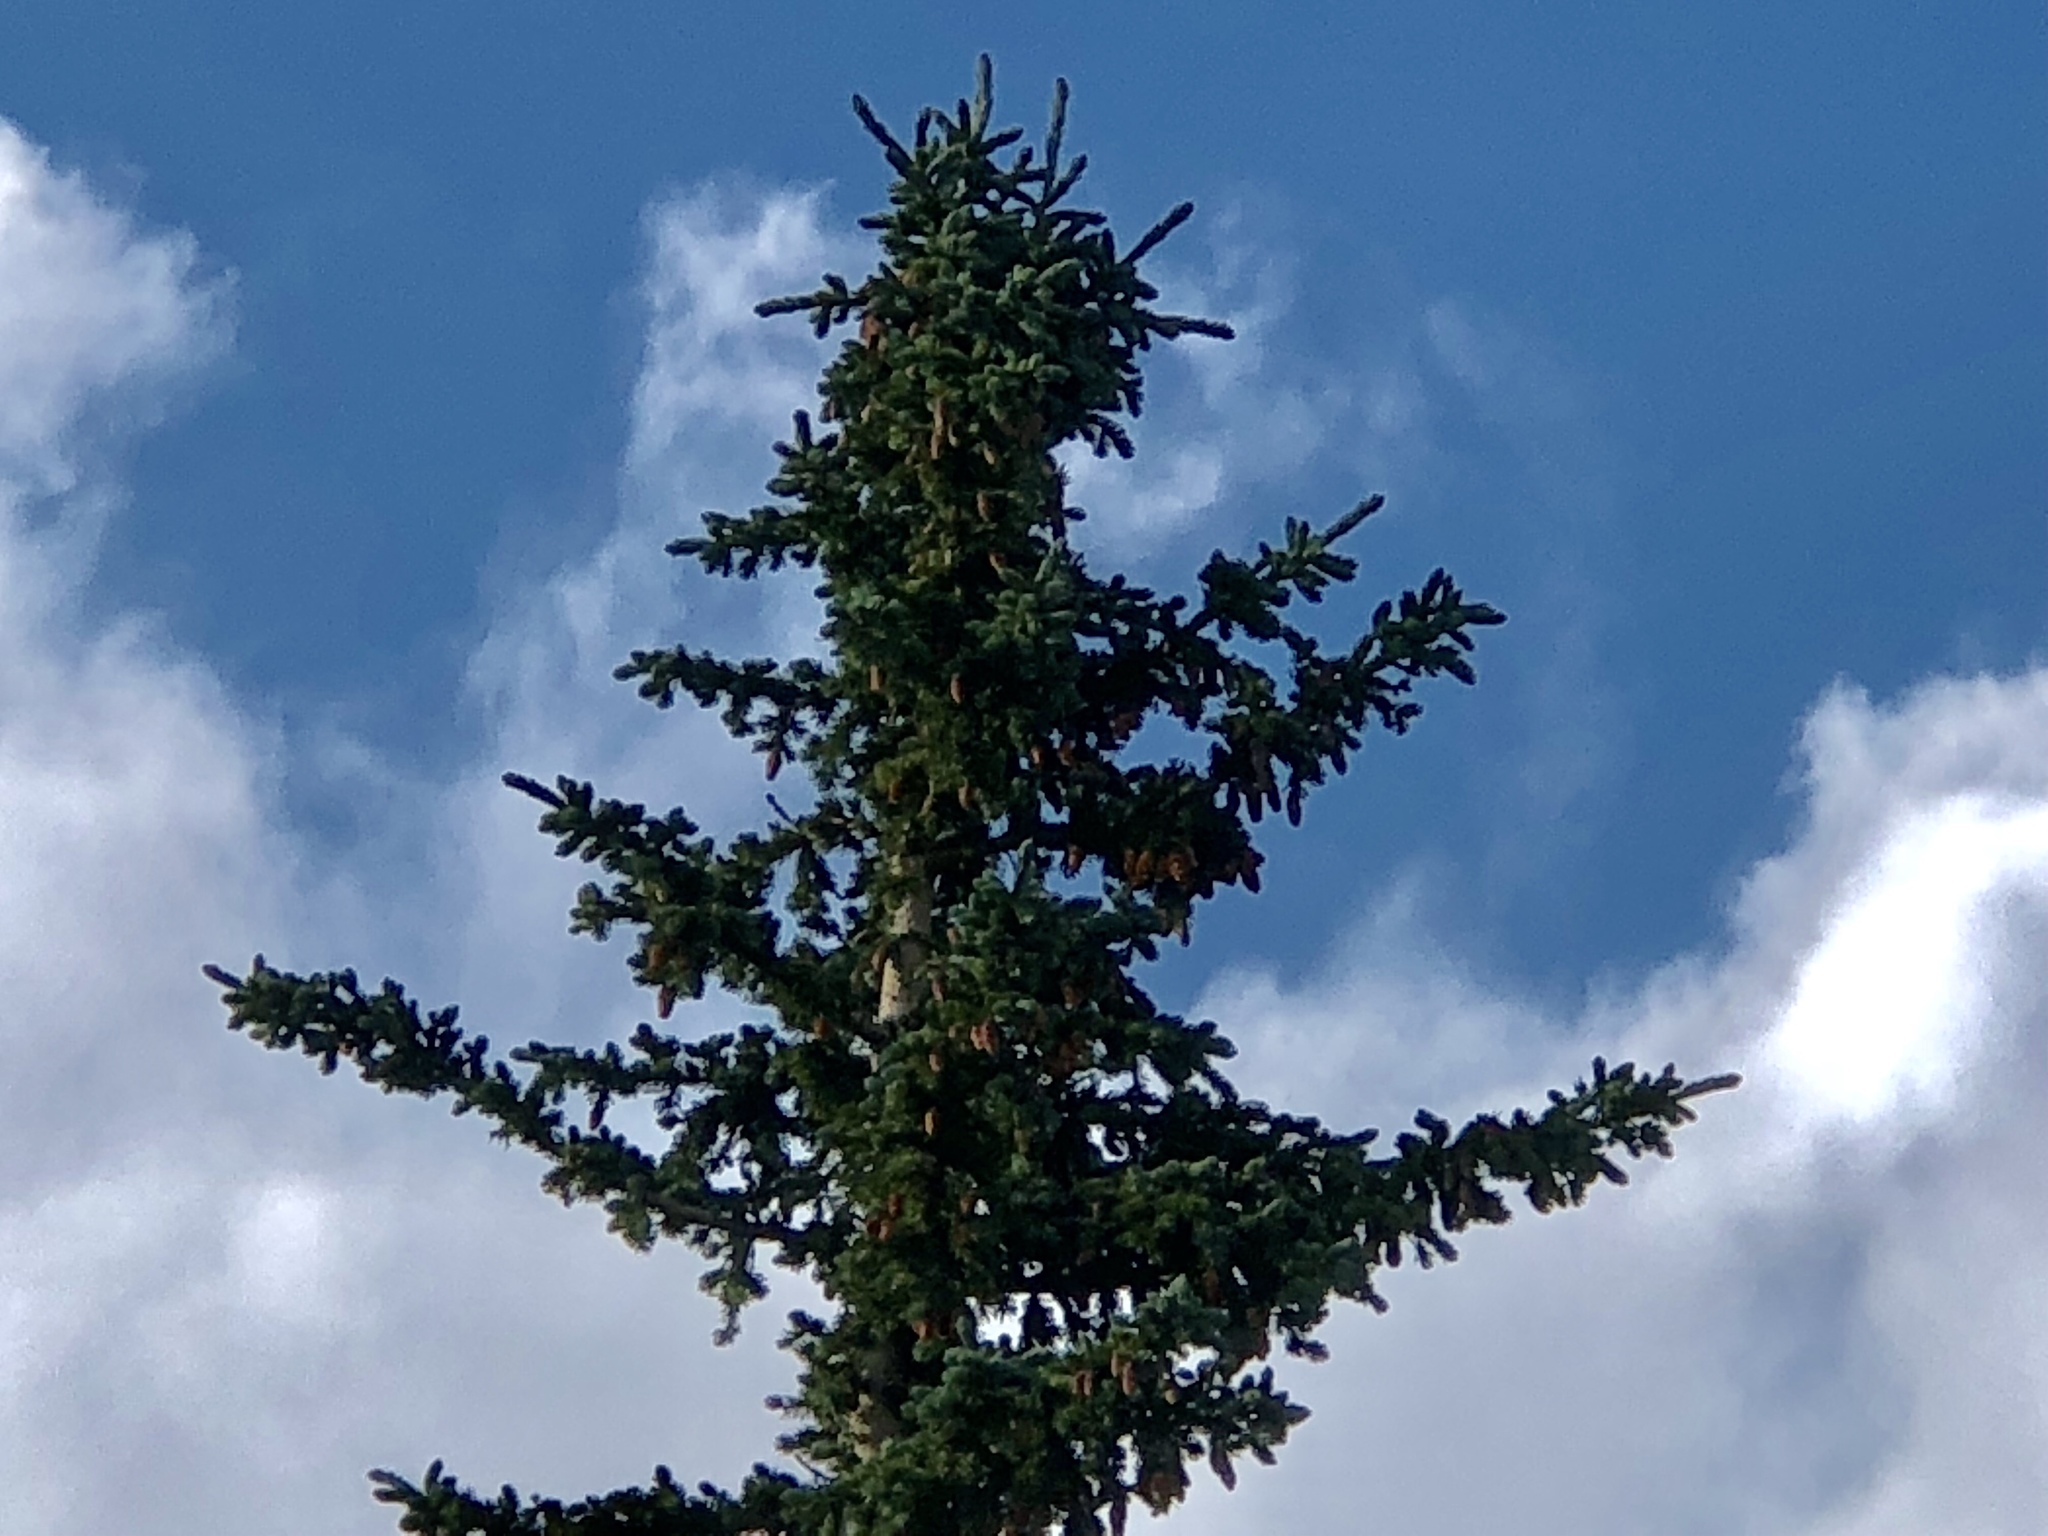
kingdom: Plantae
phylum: Tracheophyta
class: Pinopsida
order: Pinales
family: Pinaceae
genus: Picea
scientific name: Picea engelmannii
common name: Engelmann spruce
